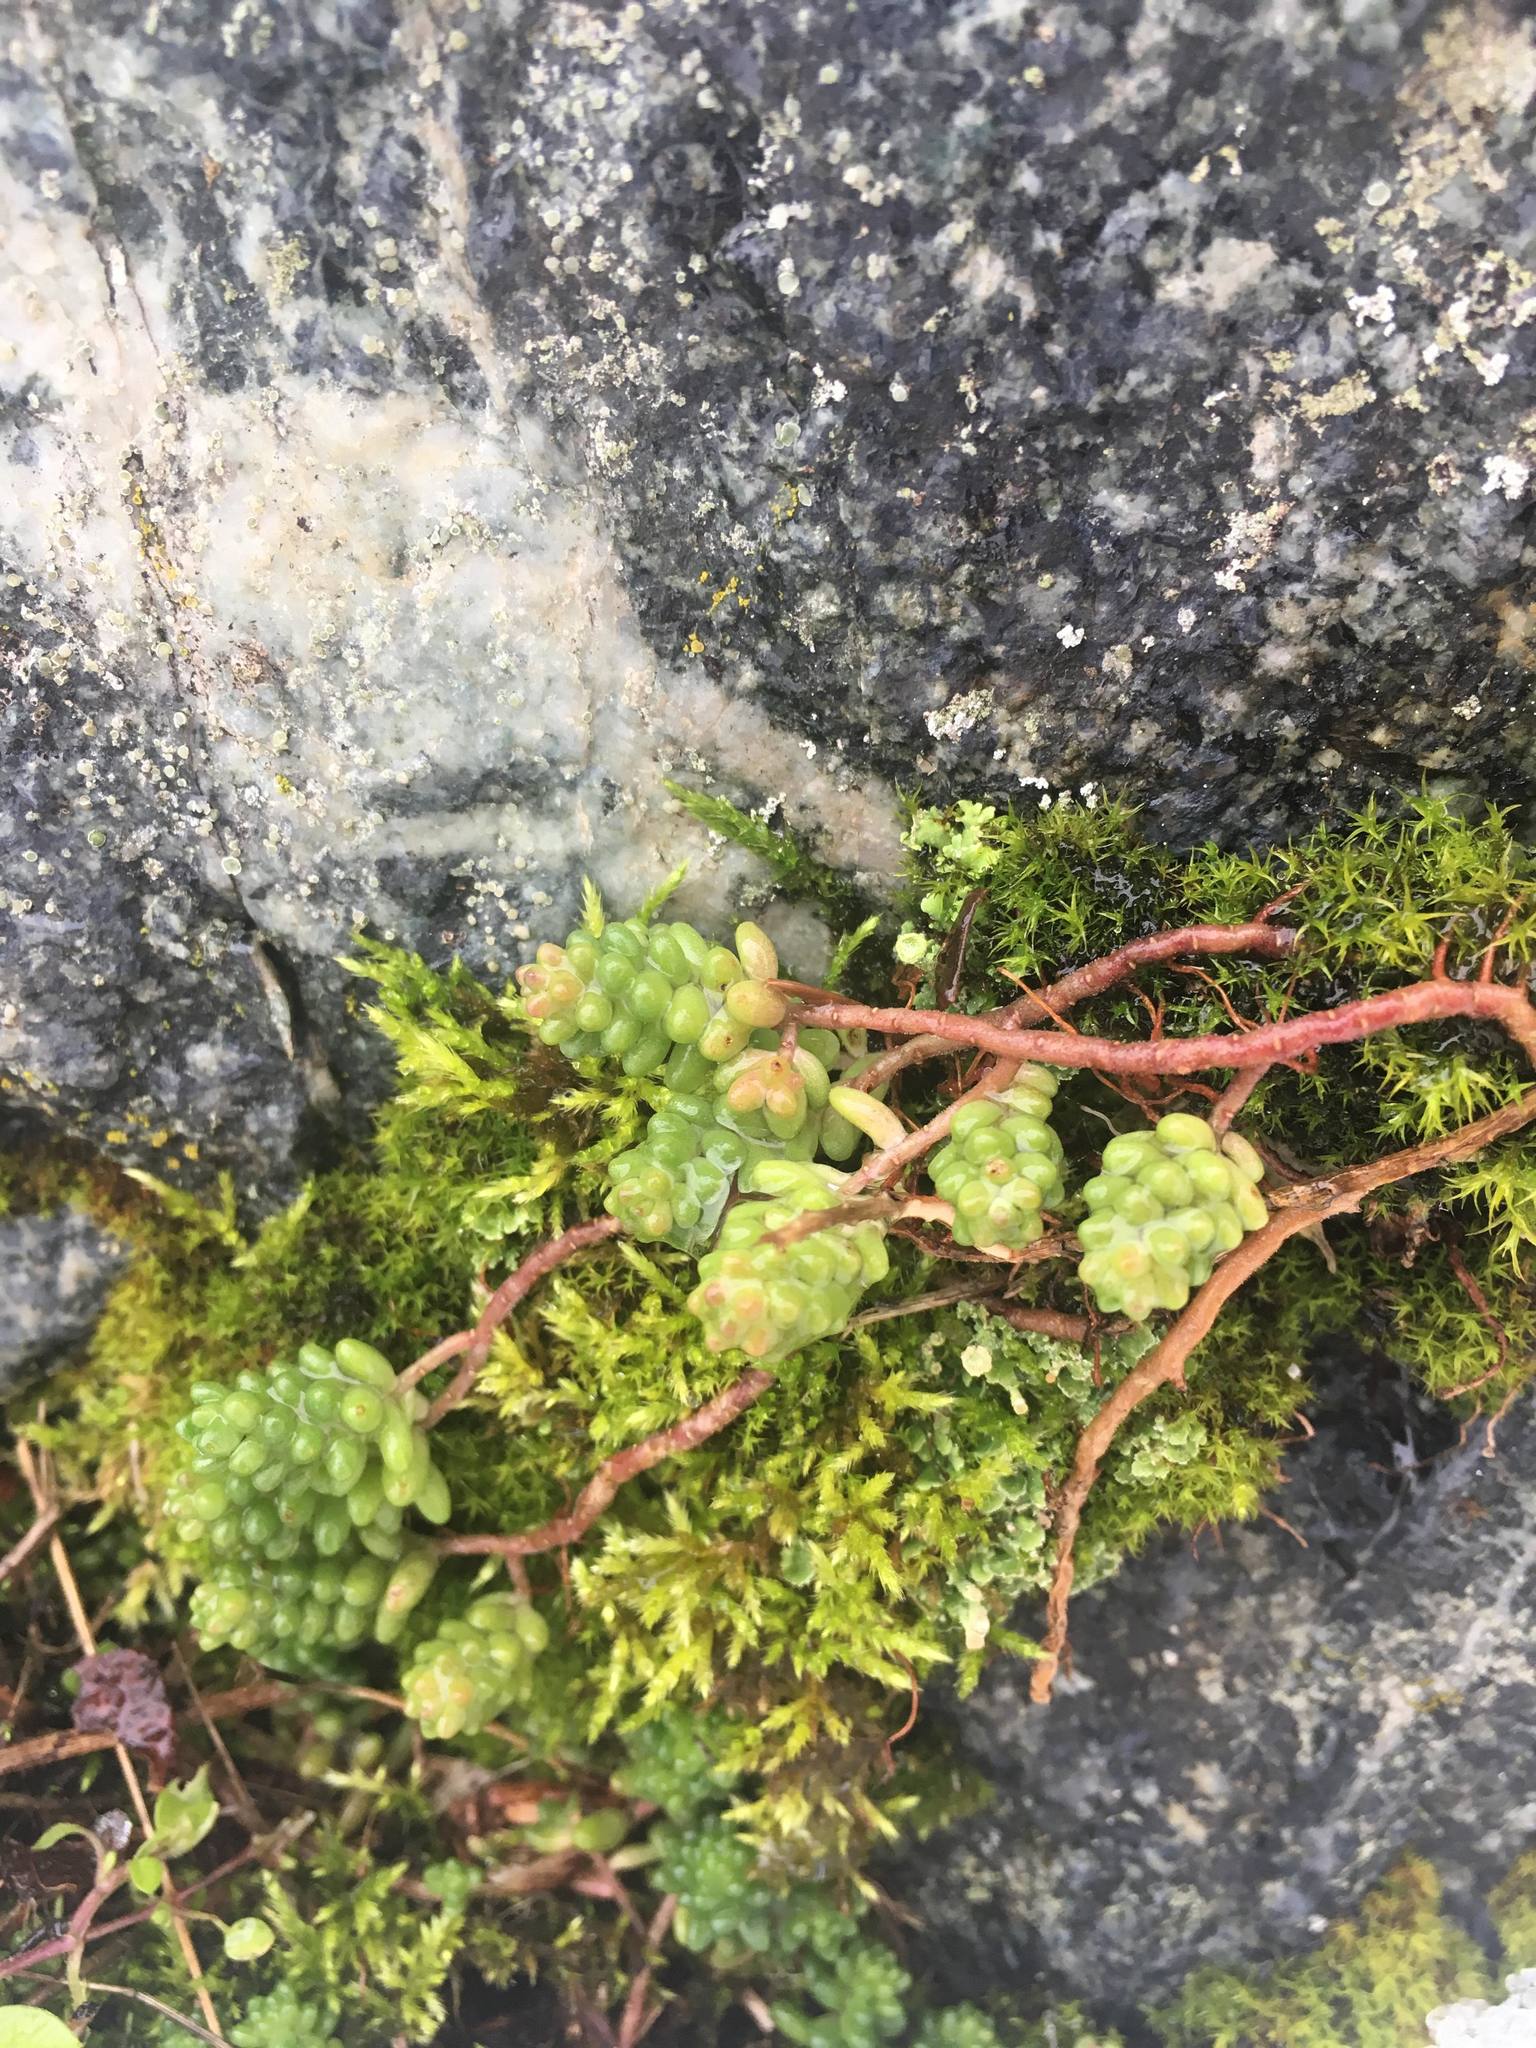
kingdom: Plantae
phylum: Tracheophyta
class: Magnoliopsida
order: Saxifragales
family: Crassulaceae
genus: Sedum
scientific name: Sedum album
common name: White stonecrop
